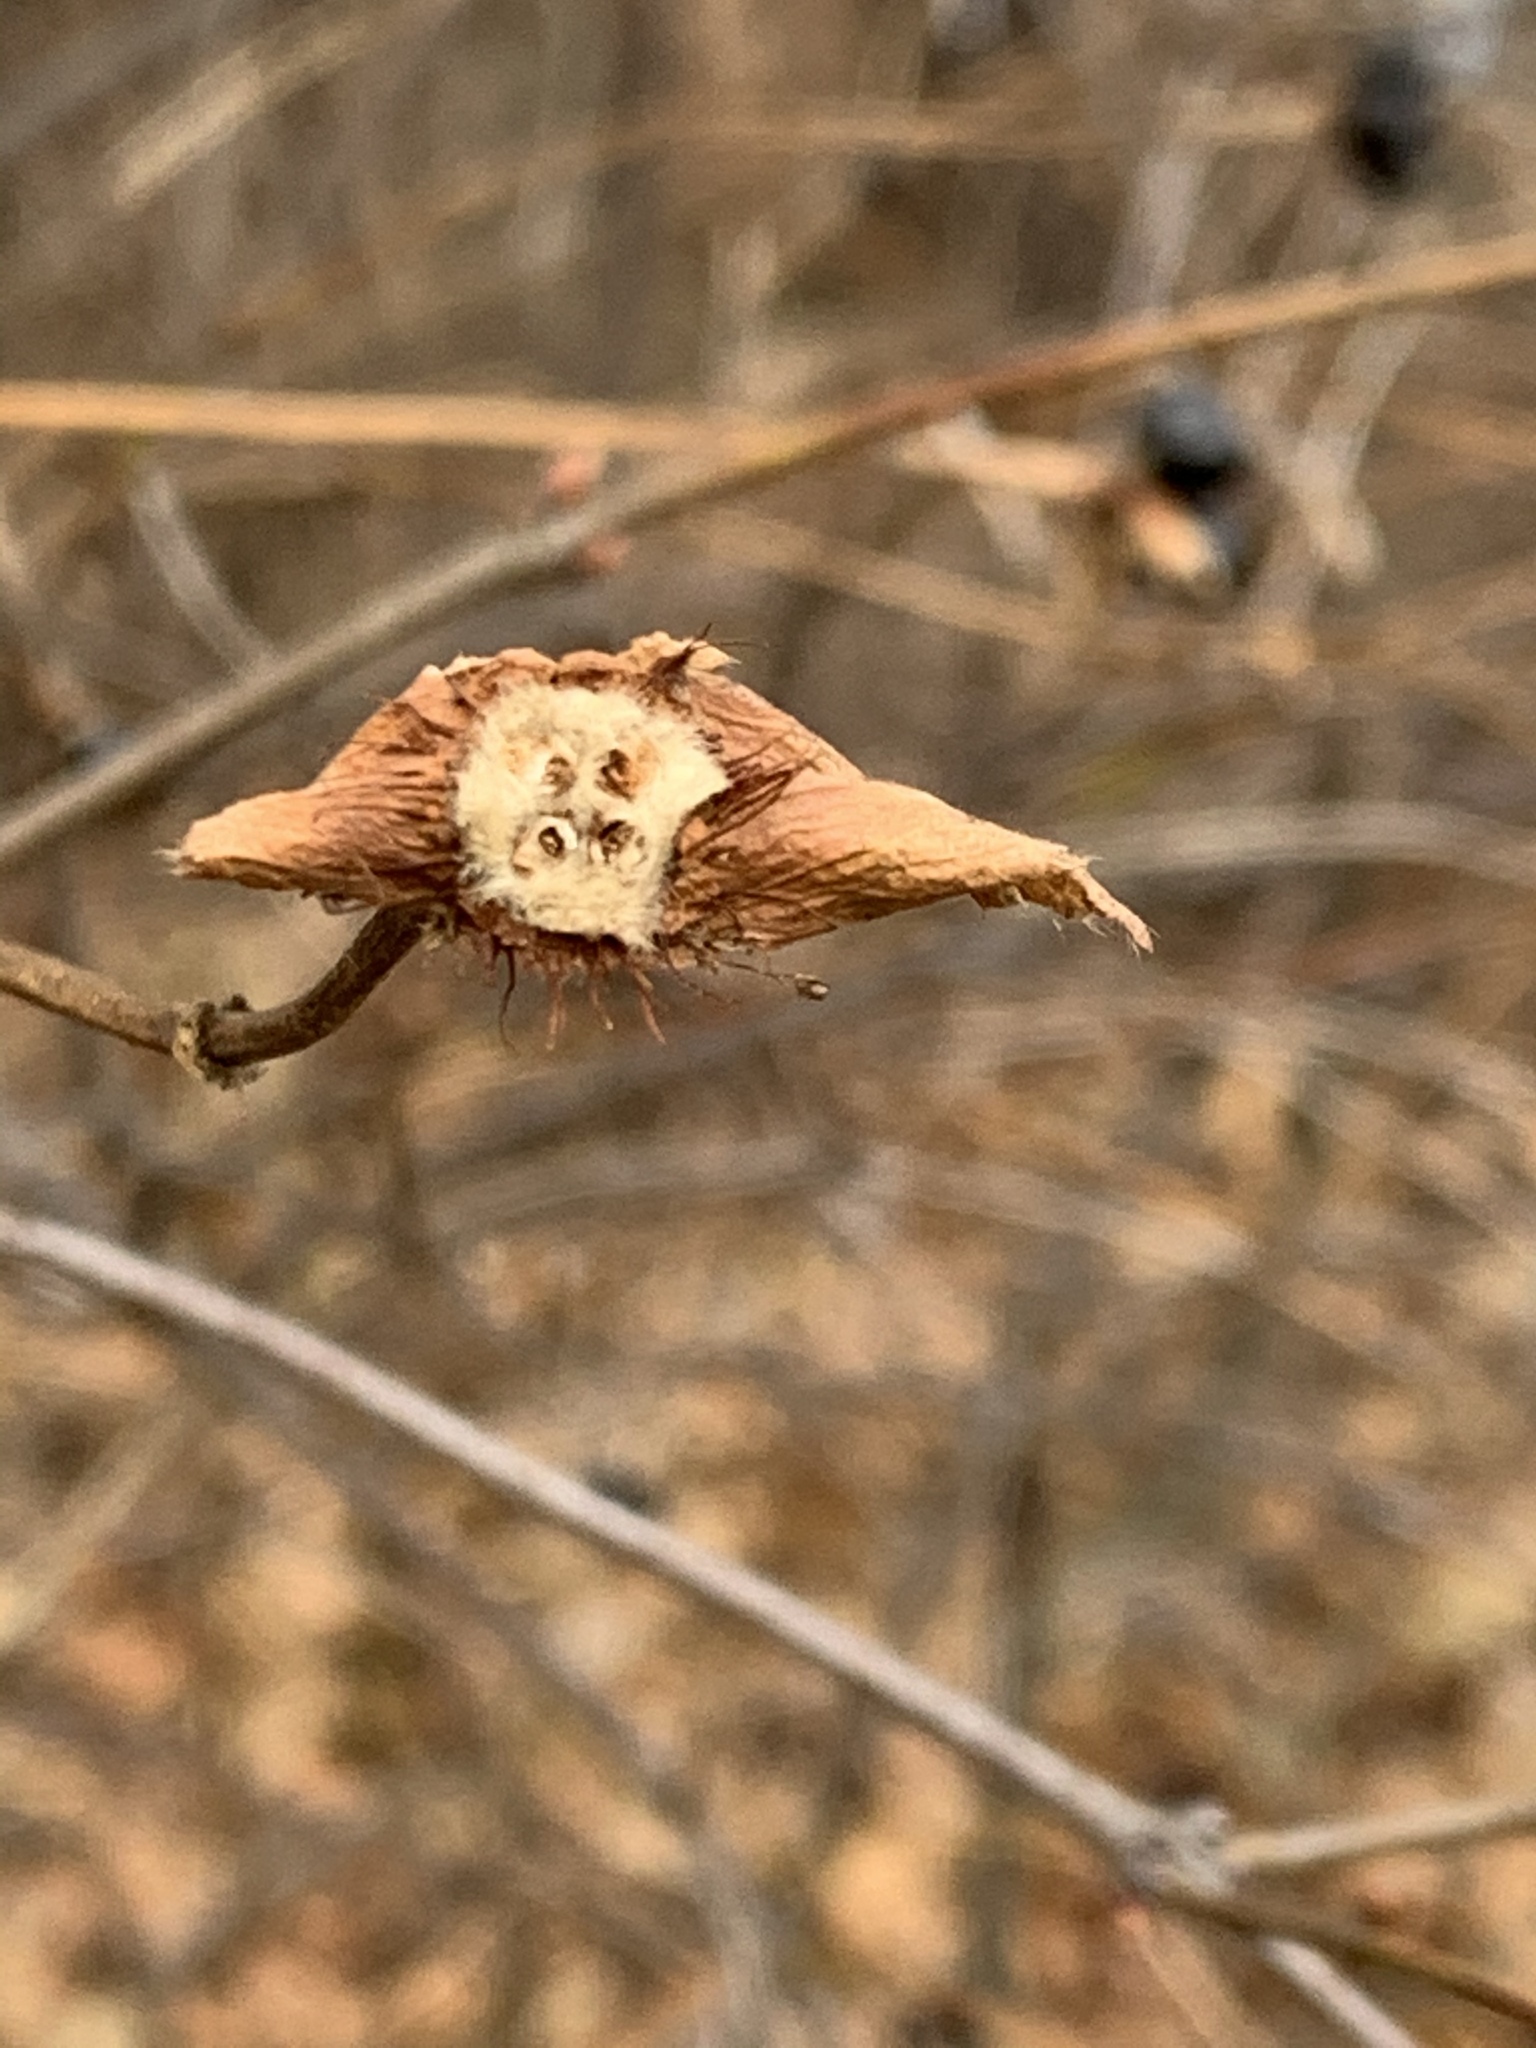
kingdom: Plantae
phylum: Tracheophyta
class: Magnoliopsida
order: Rosales
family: Rosaceae
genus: Rhodotypos
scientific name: Rhodotypos scandens
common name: Jetbead
